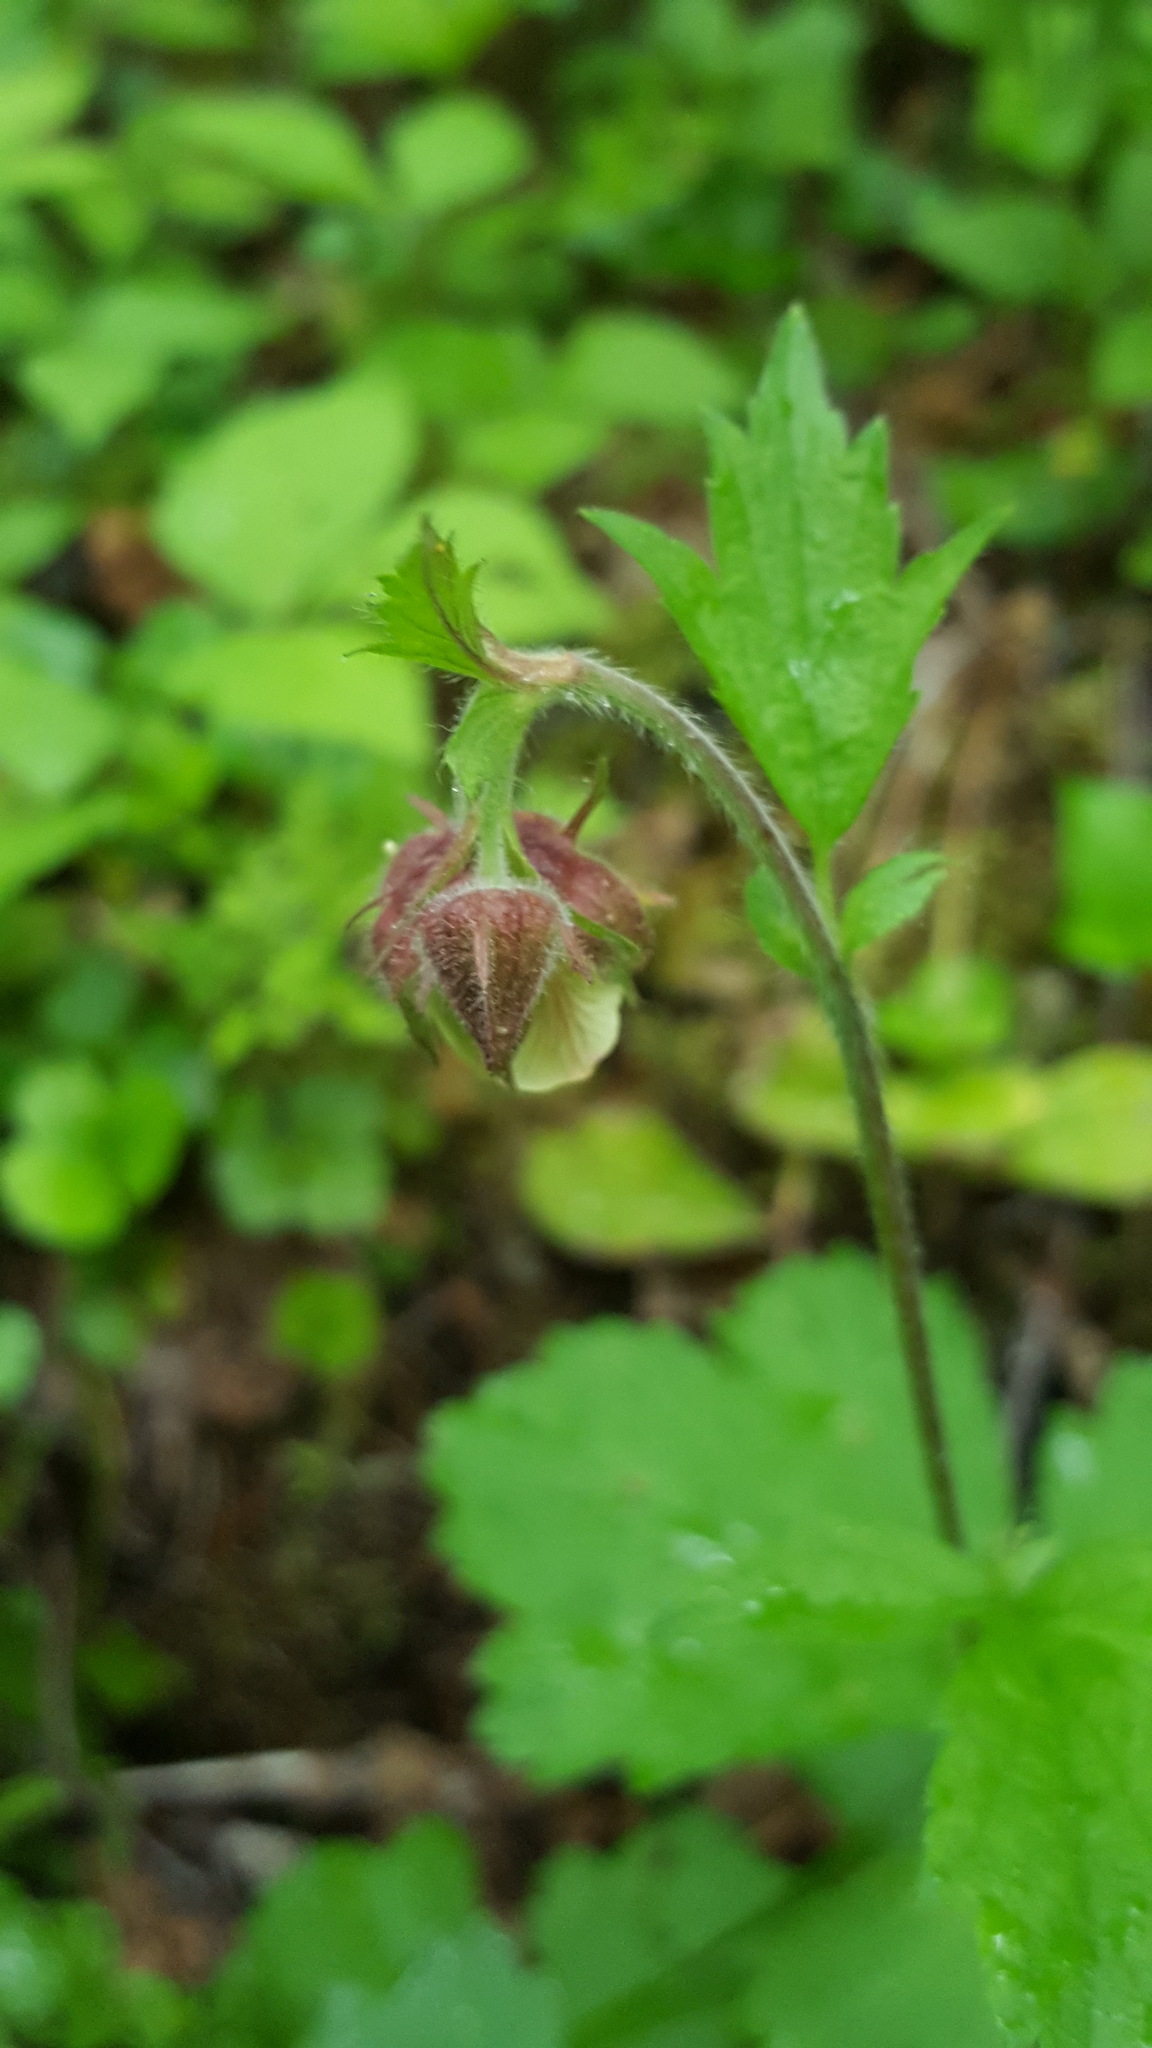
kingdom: Plantae
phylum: Tracheophyta
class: Magnoliopsida
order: Rosales
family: Rosaceae
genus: Geum
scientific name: Geum rivale
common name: Water avens
